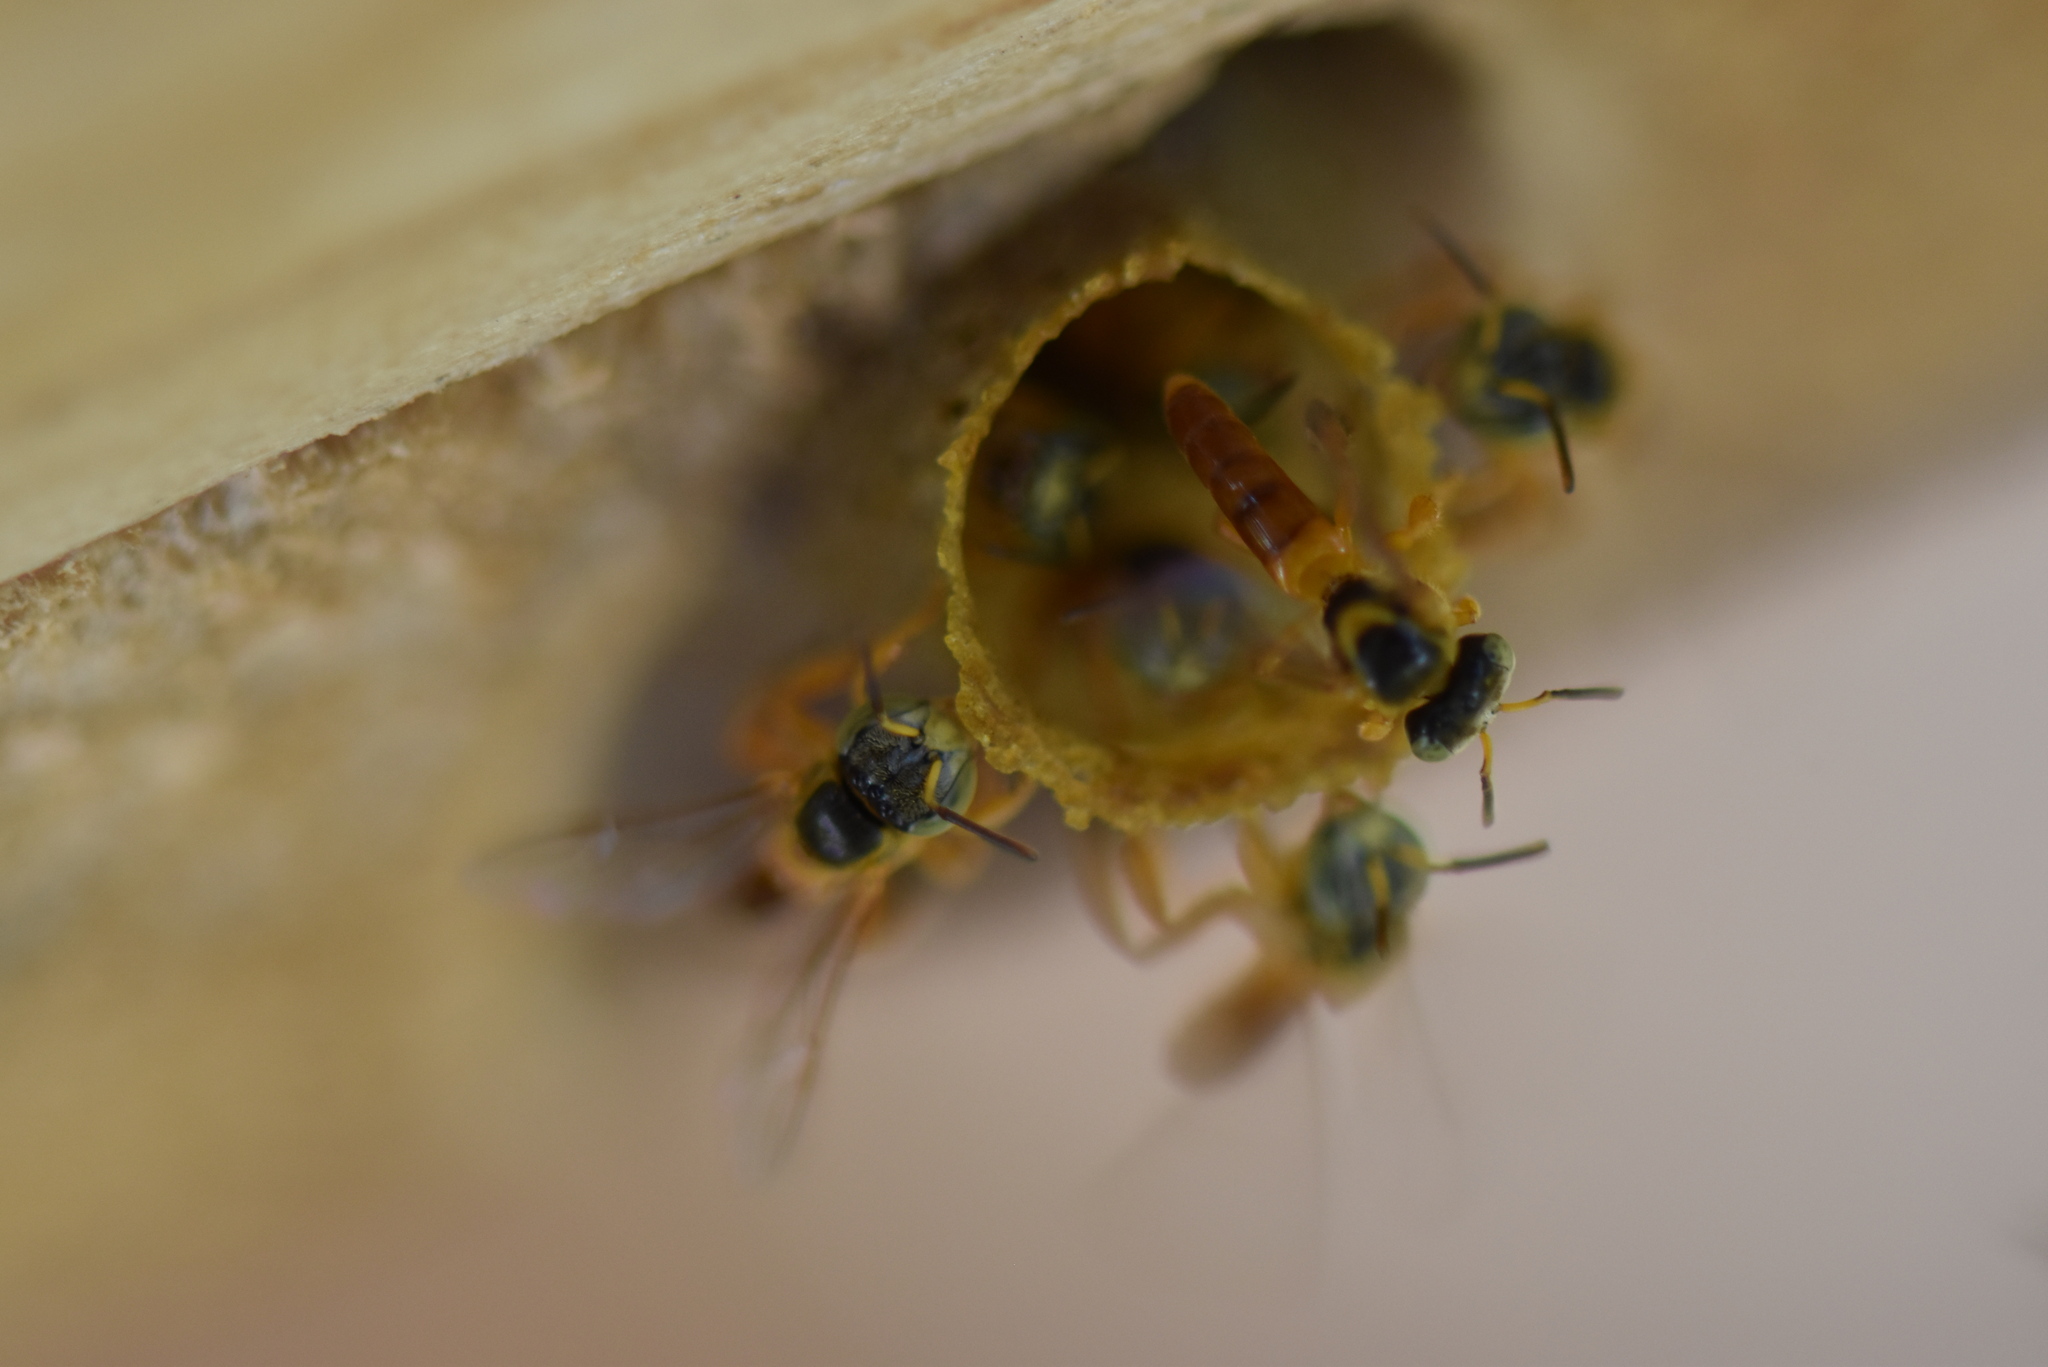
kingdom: Animalia
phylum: Arthropoda
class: Insecta
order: Hymenoptera
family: Apidae
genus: Tetragonisca
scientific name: Tetragonisca fiebrigi
